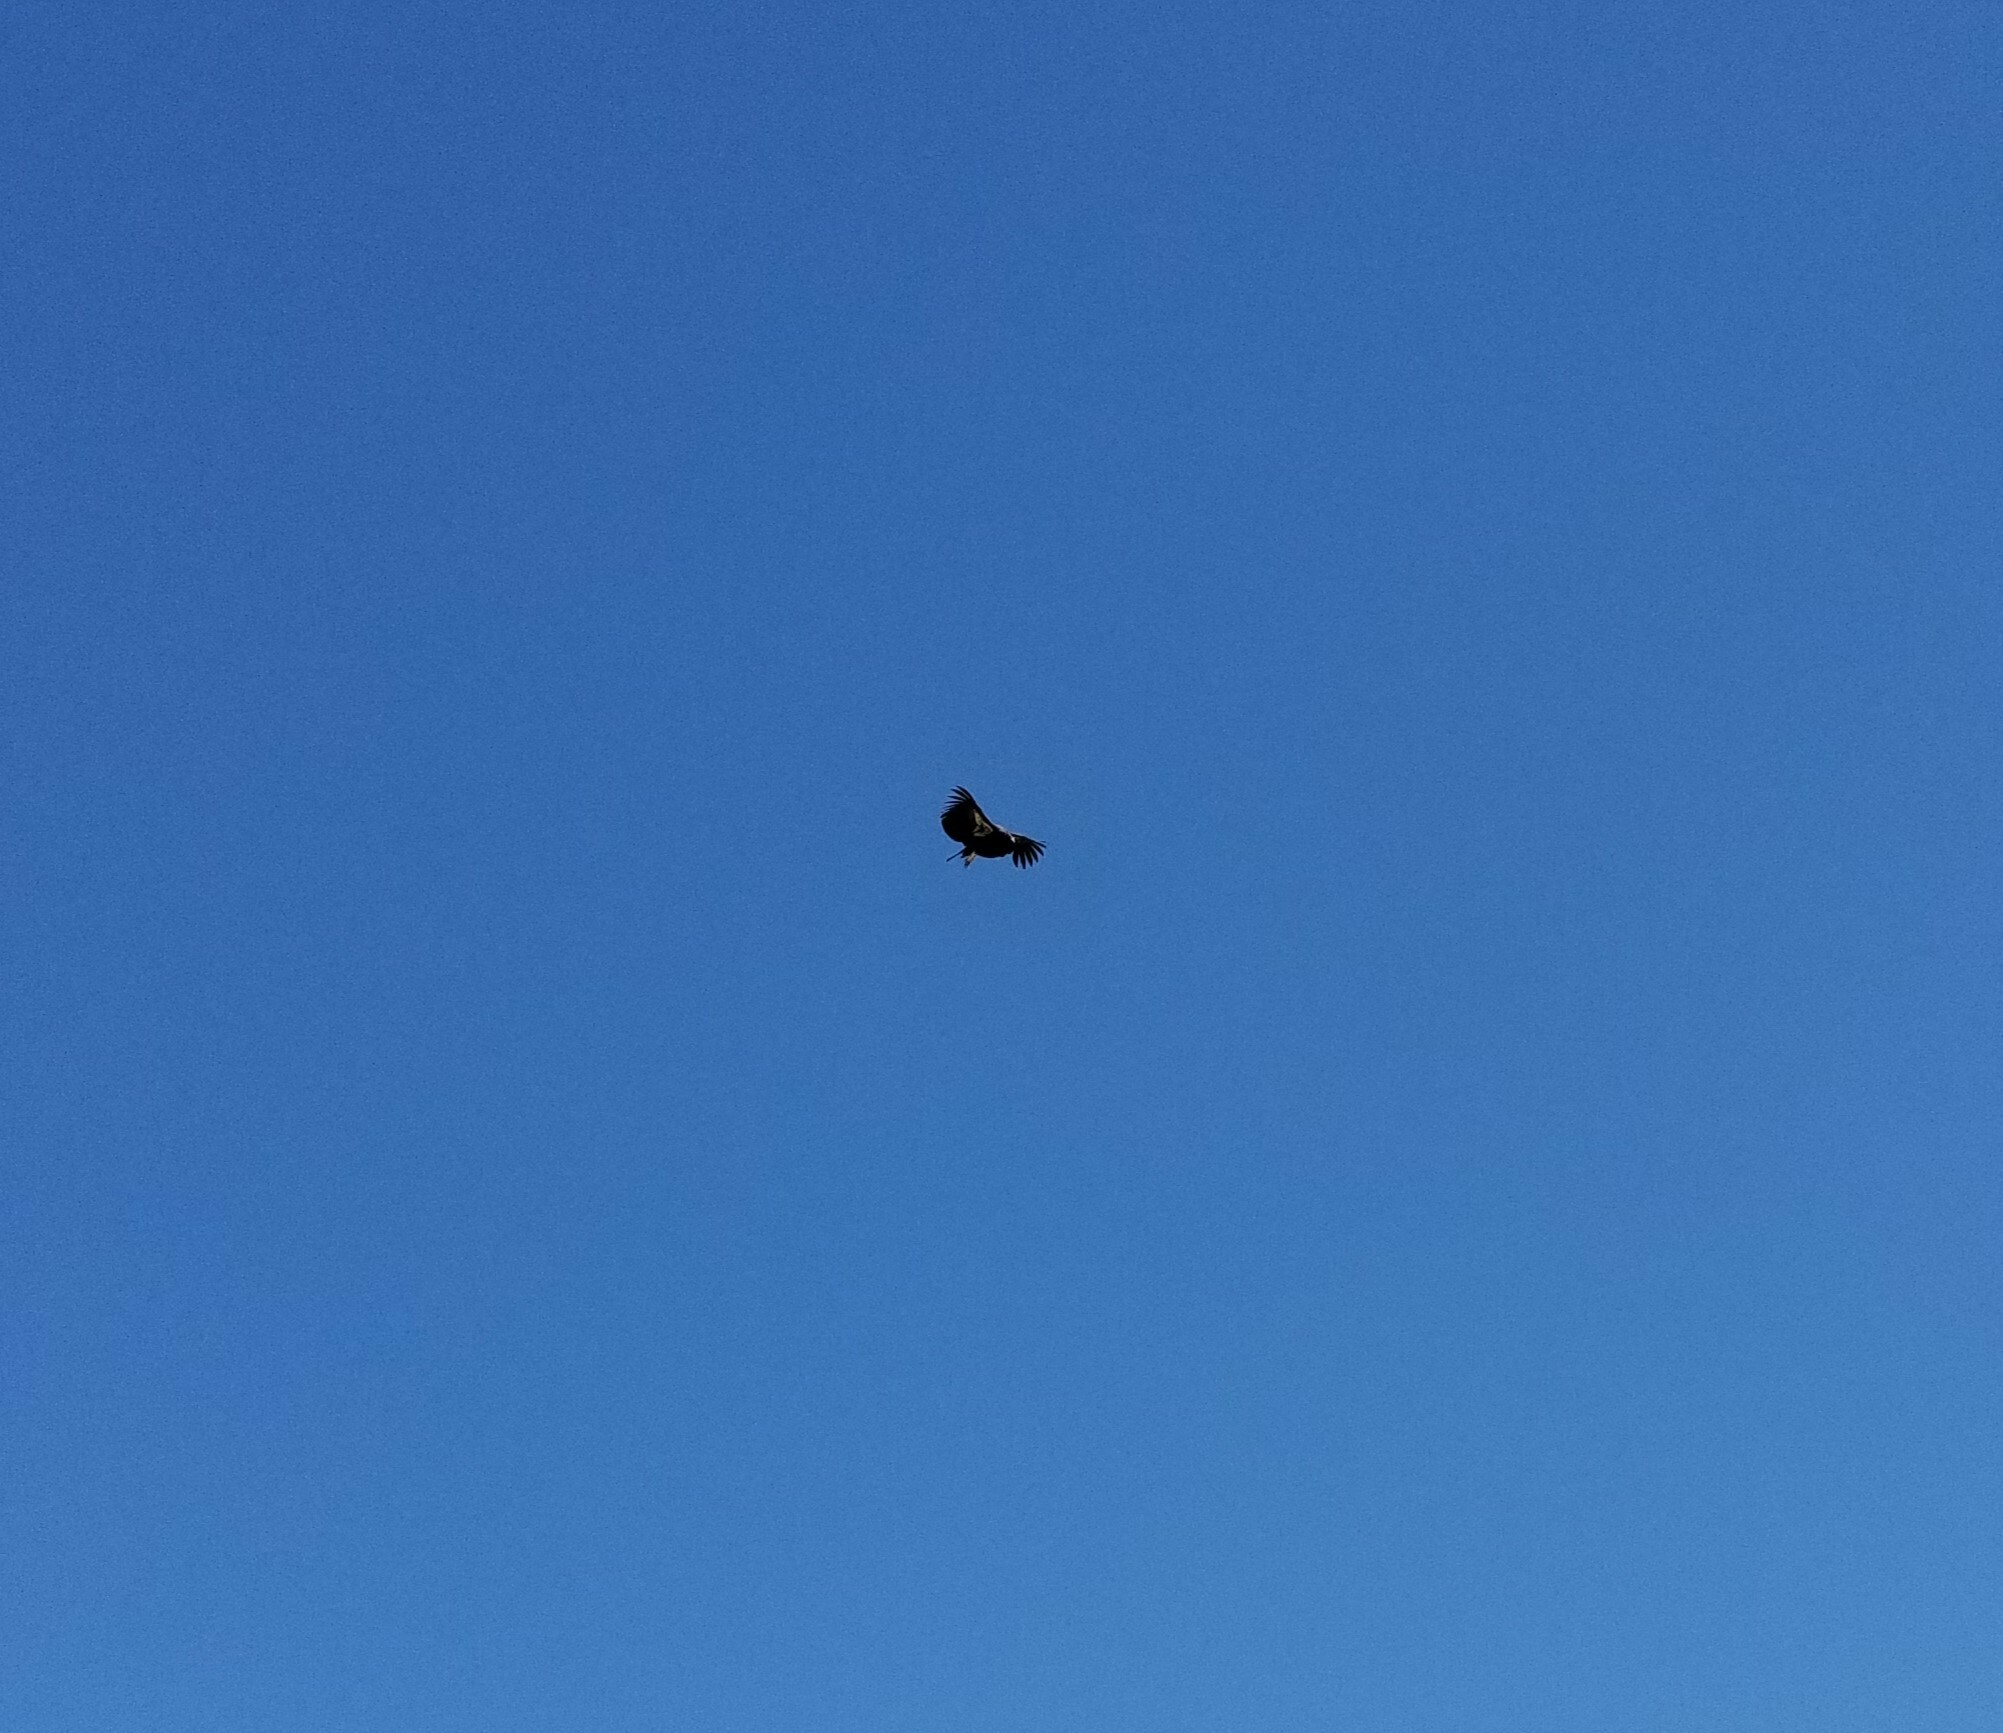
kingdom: Animalia
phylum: Chordata
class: Aves
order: Accipitriformes
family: Cathartidae
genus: Gymnogyps
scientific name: Gymnogyps californianus
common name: California condor
